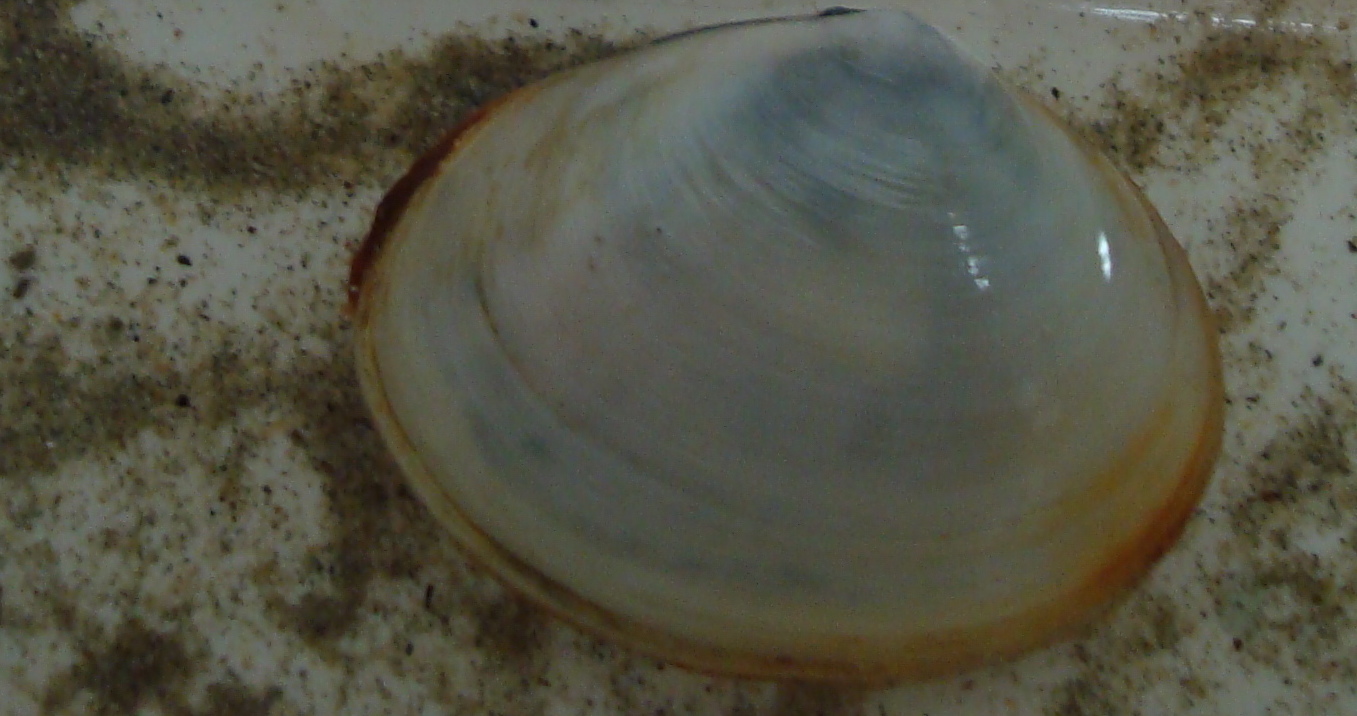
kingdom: Animalia
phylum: Mollusca
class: Bivalvia
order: Cardiida
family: Semelidae
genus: Scrobicularia
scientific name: Scrobicularia plana
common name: Peppery furrow shell
